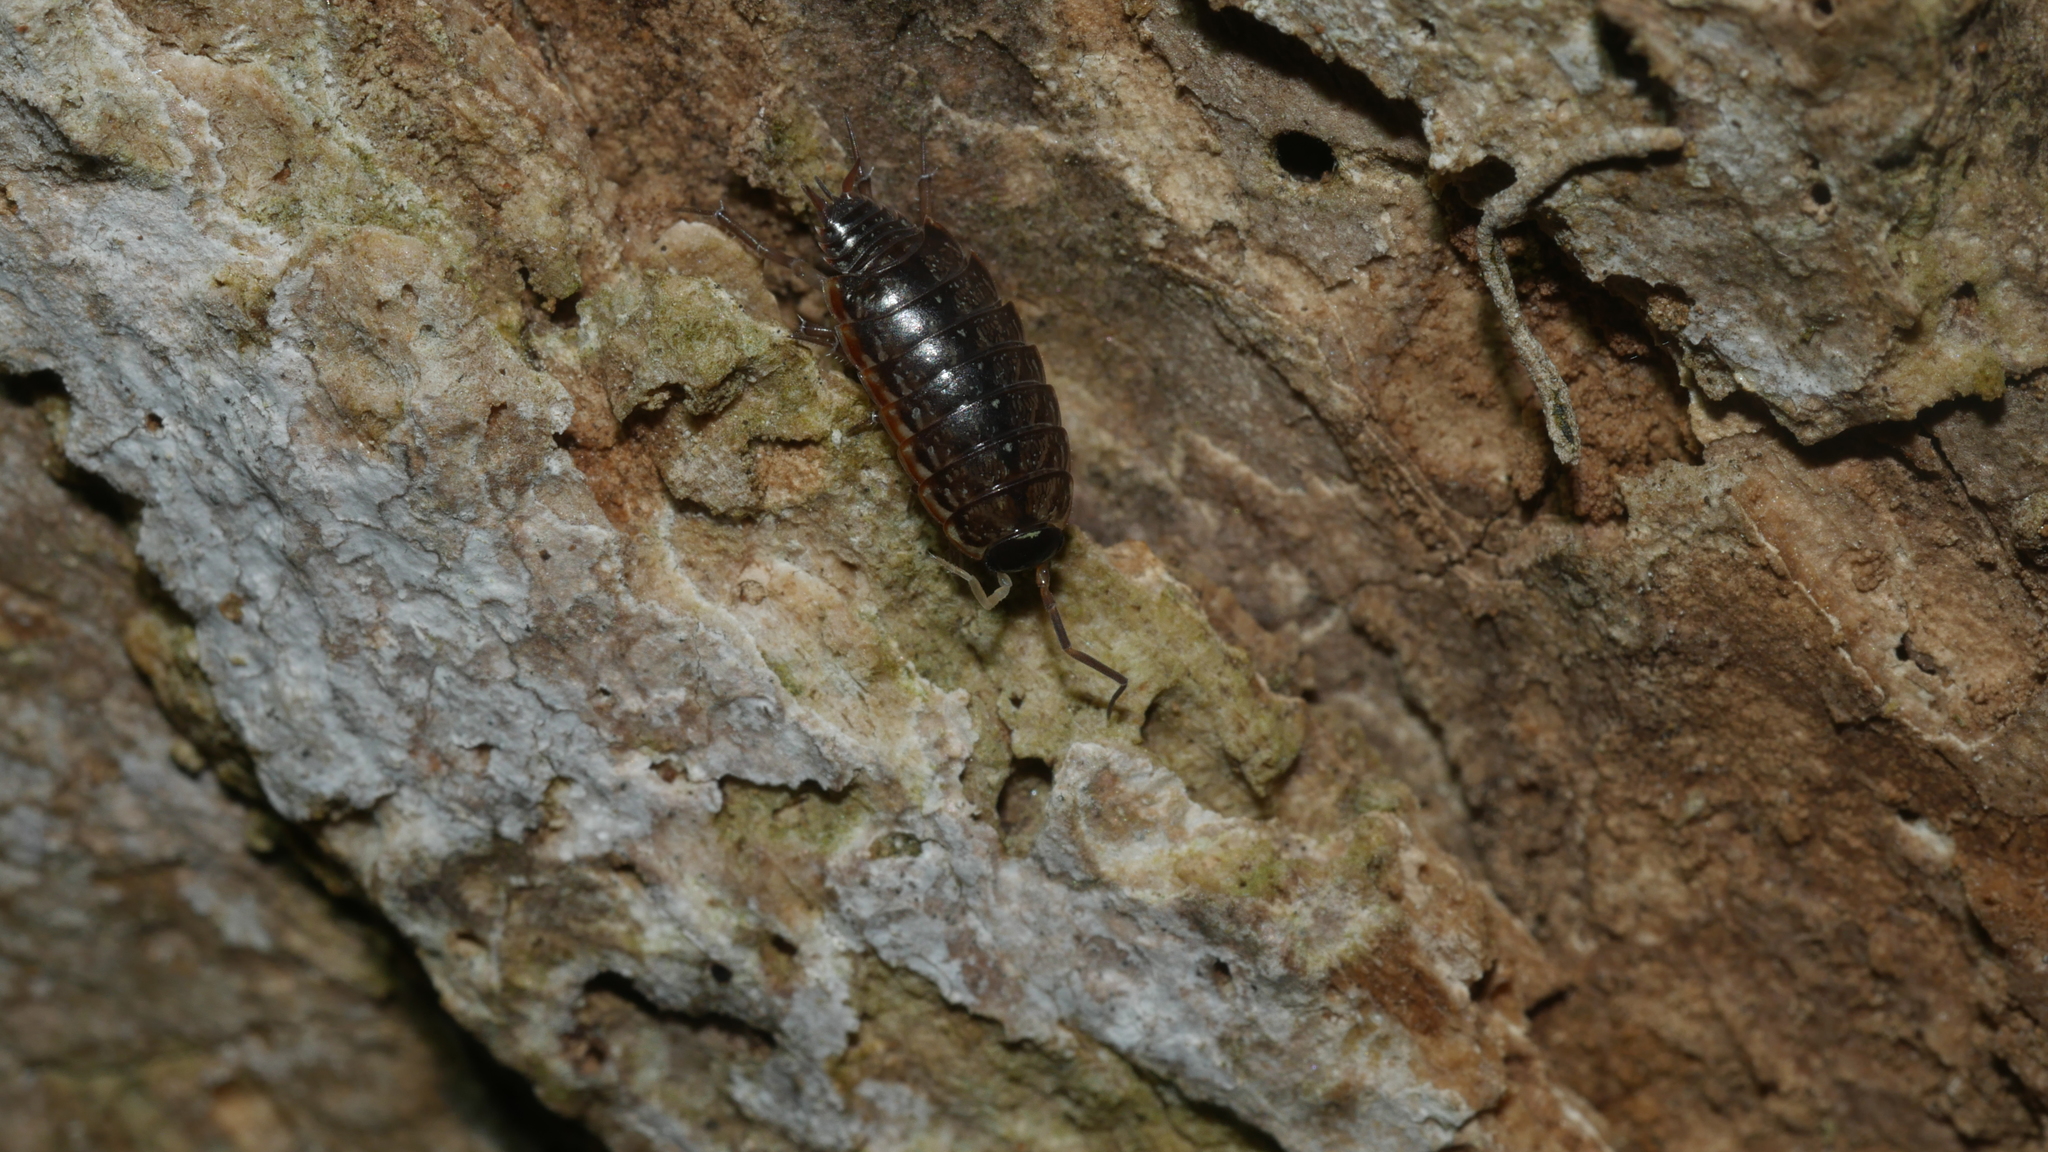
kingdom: Animalia
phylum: Arthropoda
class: Malacostraca
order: Isopoda
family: Philosciidae
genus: Philoscia
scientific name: Philoscia muscorum
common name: Common striped woodlouse
